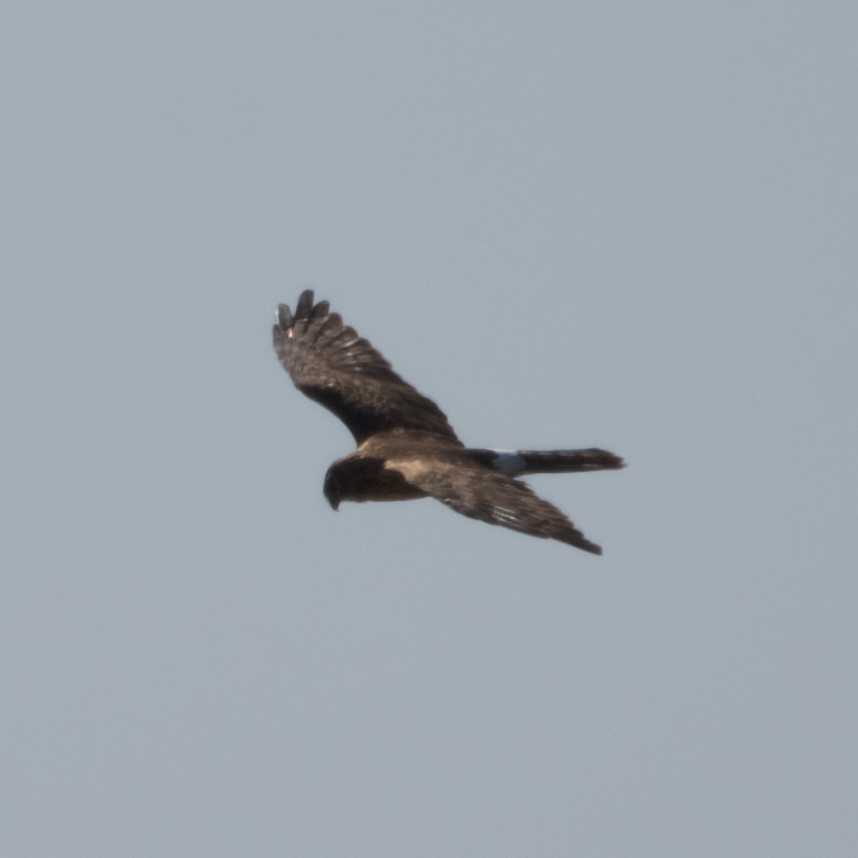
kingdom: Animalia
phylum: Chordata
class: Aves
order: Accipitriformes
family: Accipitridae
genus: Circus
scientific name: Circus cyaneus
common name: Hen harrier
